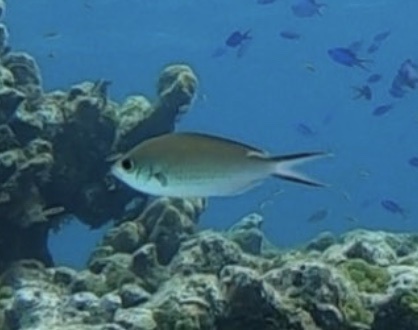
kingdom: Animalia
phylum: Chordata
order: Perciformes
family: Pomacentridae
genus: Chromis
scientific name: Chromis multilineata
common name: Brown chromis
